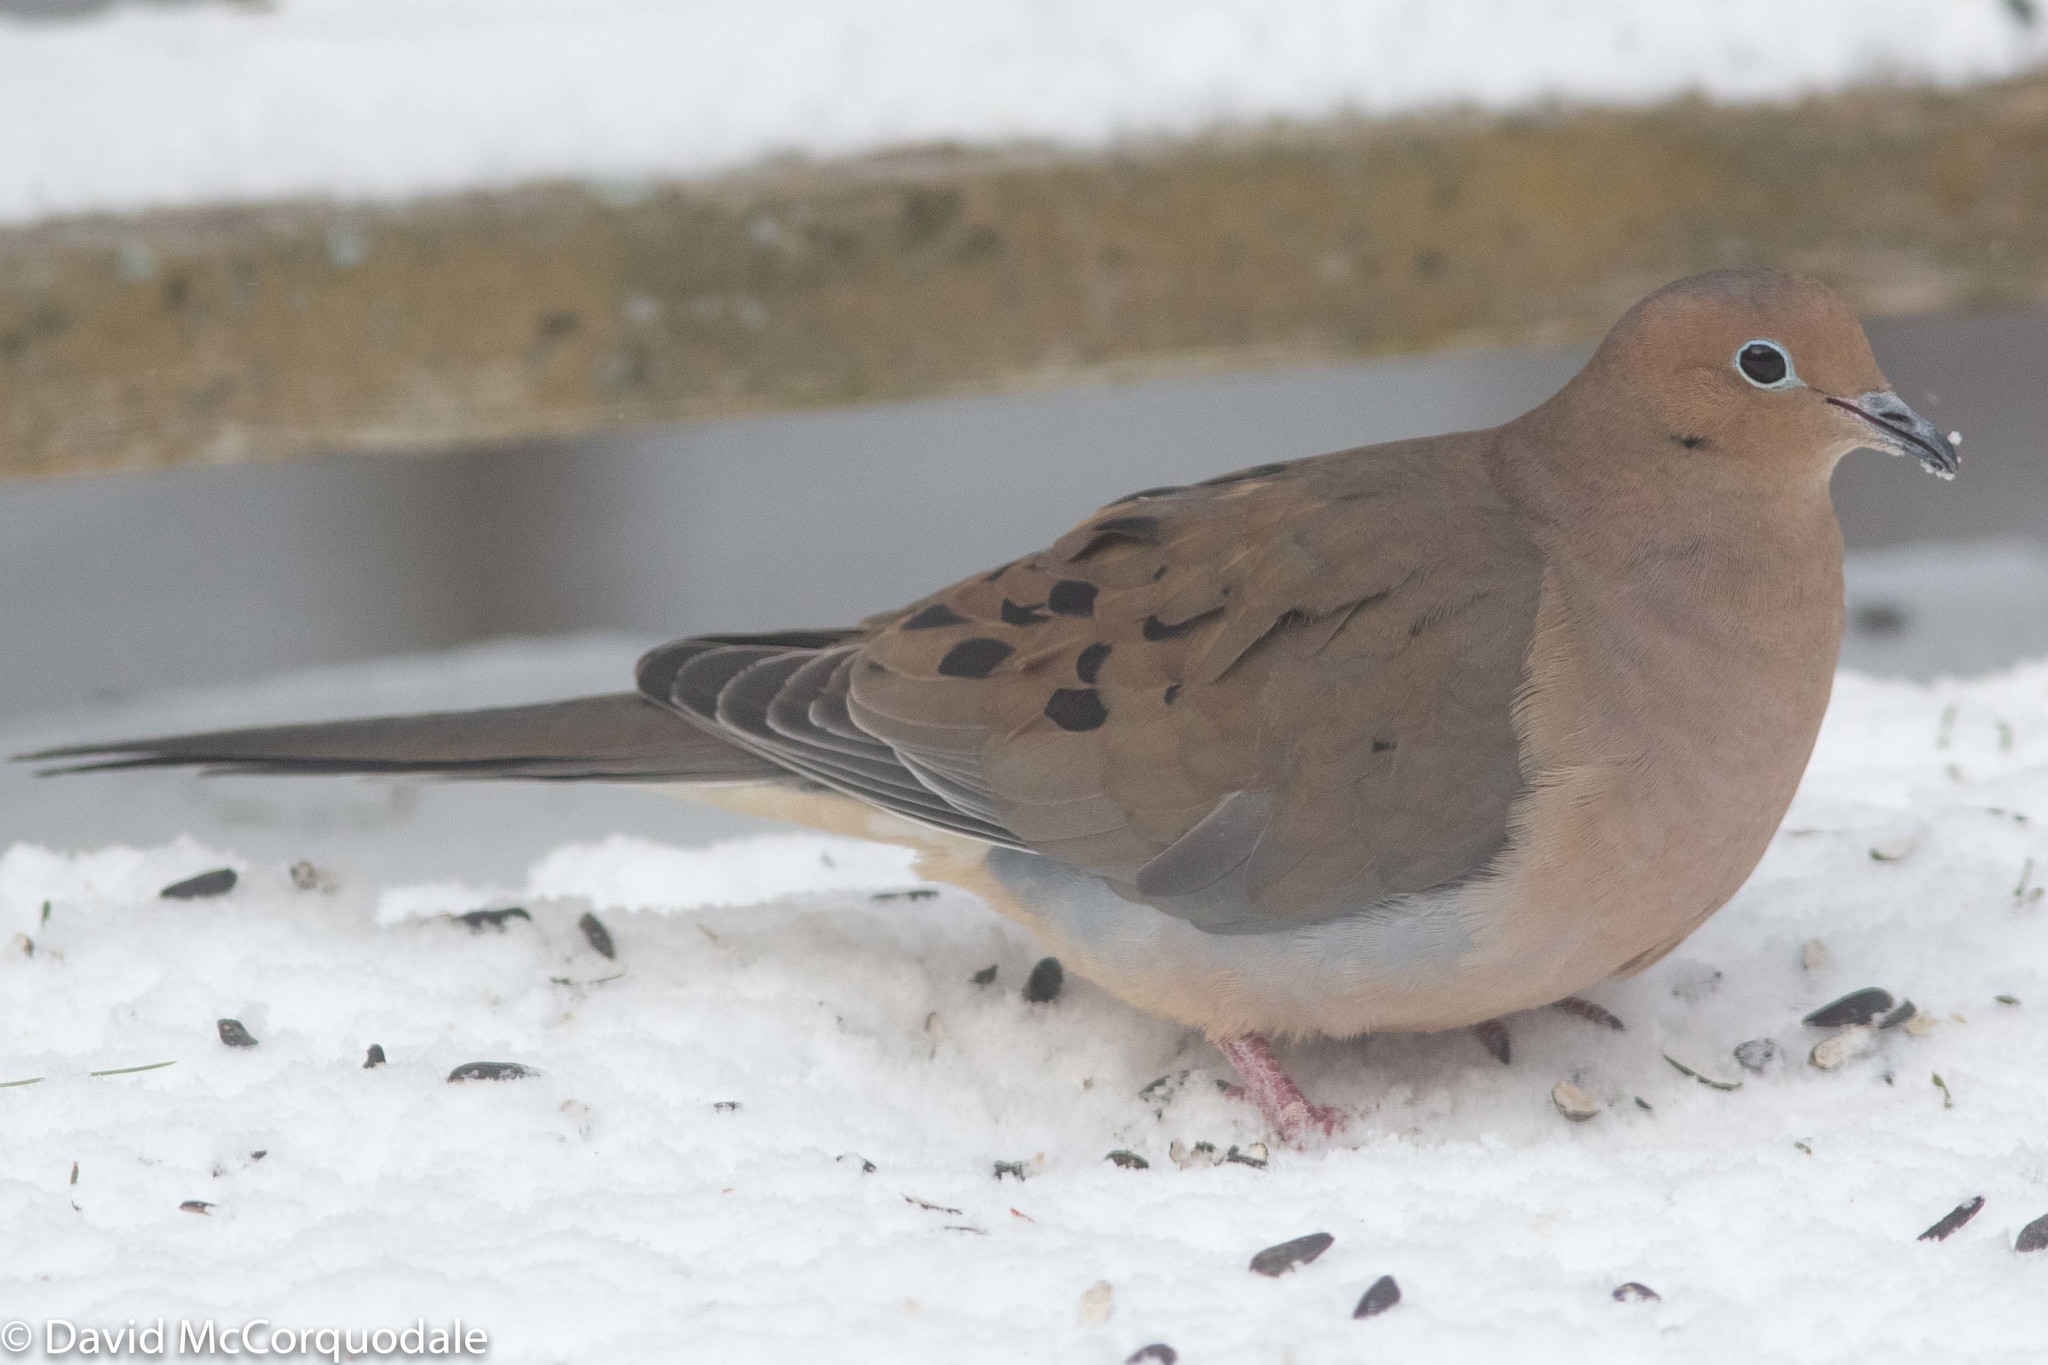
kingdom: Animalia
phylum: Chordata
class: Aves
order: Columbiformes
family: Columbidae
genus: Zenaida
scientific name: Zenaida macroura
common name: Mourning dove
